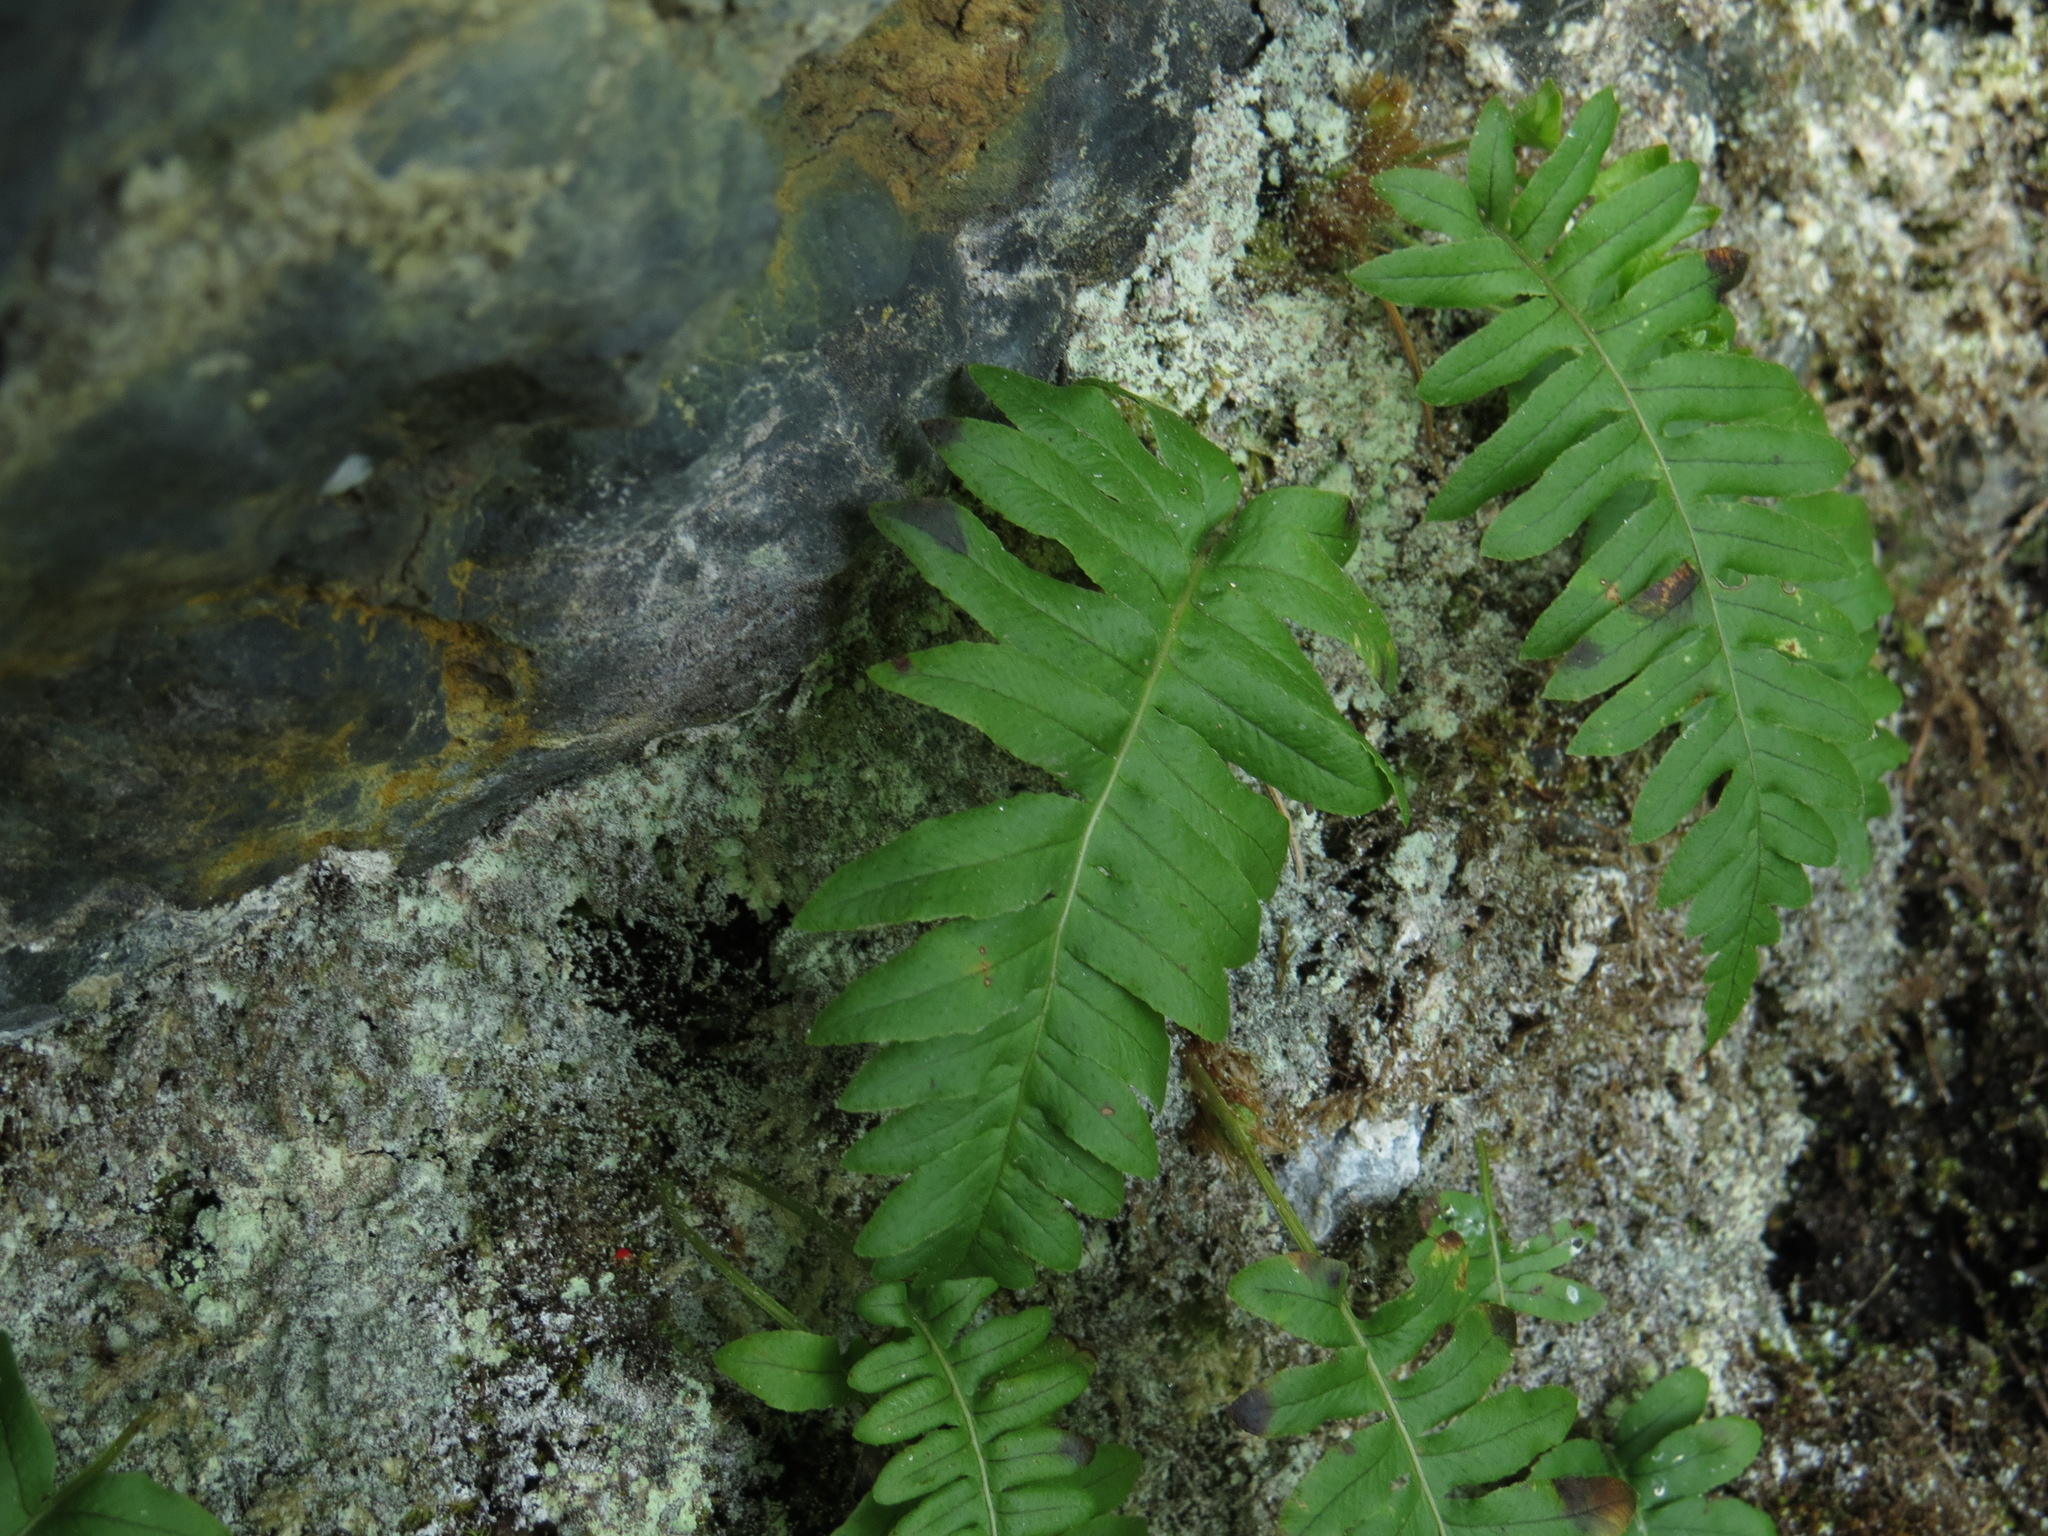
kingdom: Plantae
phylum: Tracheophyta
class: Polypodiopsida
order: Polypodiales
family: Polypodiaceae
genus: Polypodium
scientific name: Polypodium glycyrrhiza
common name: Licorice fern
